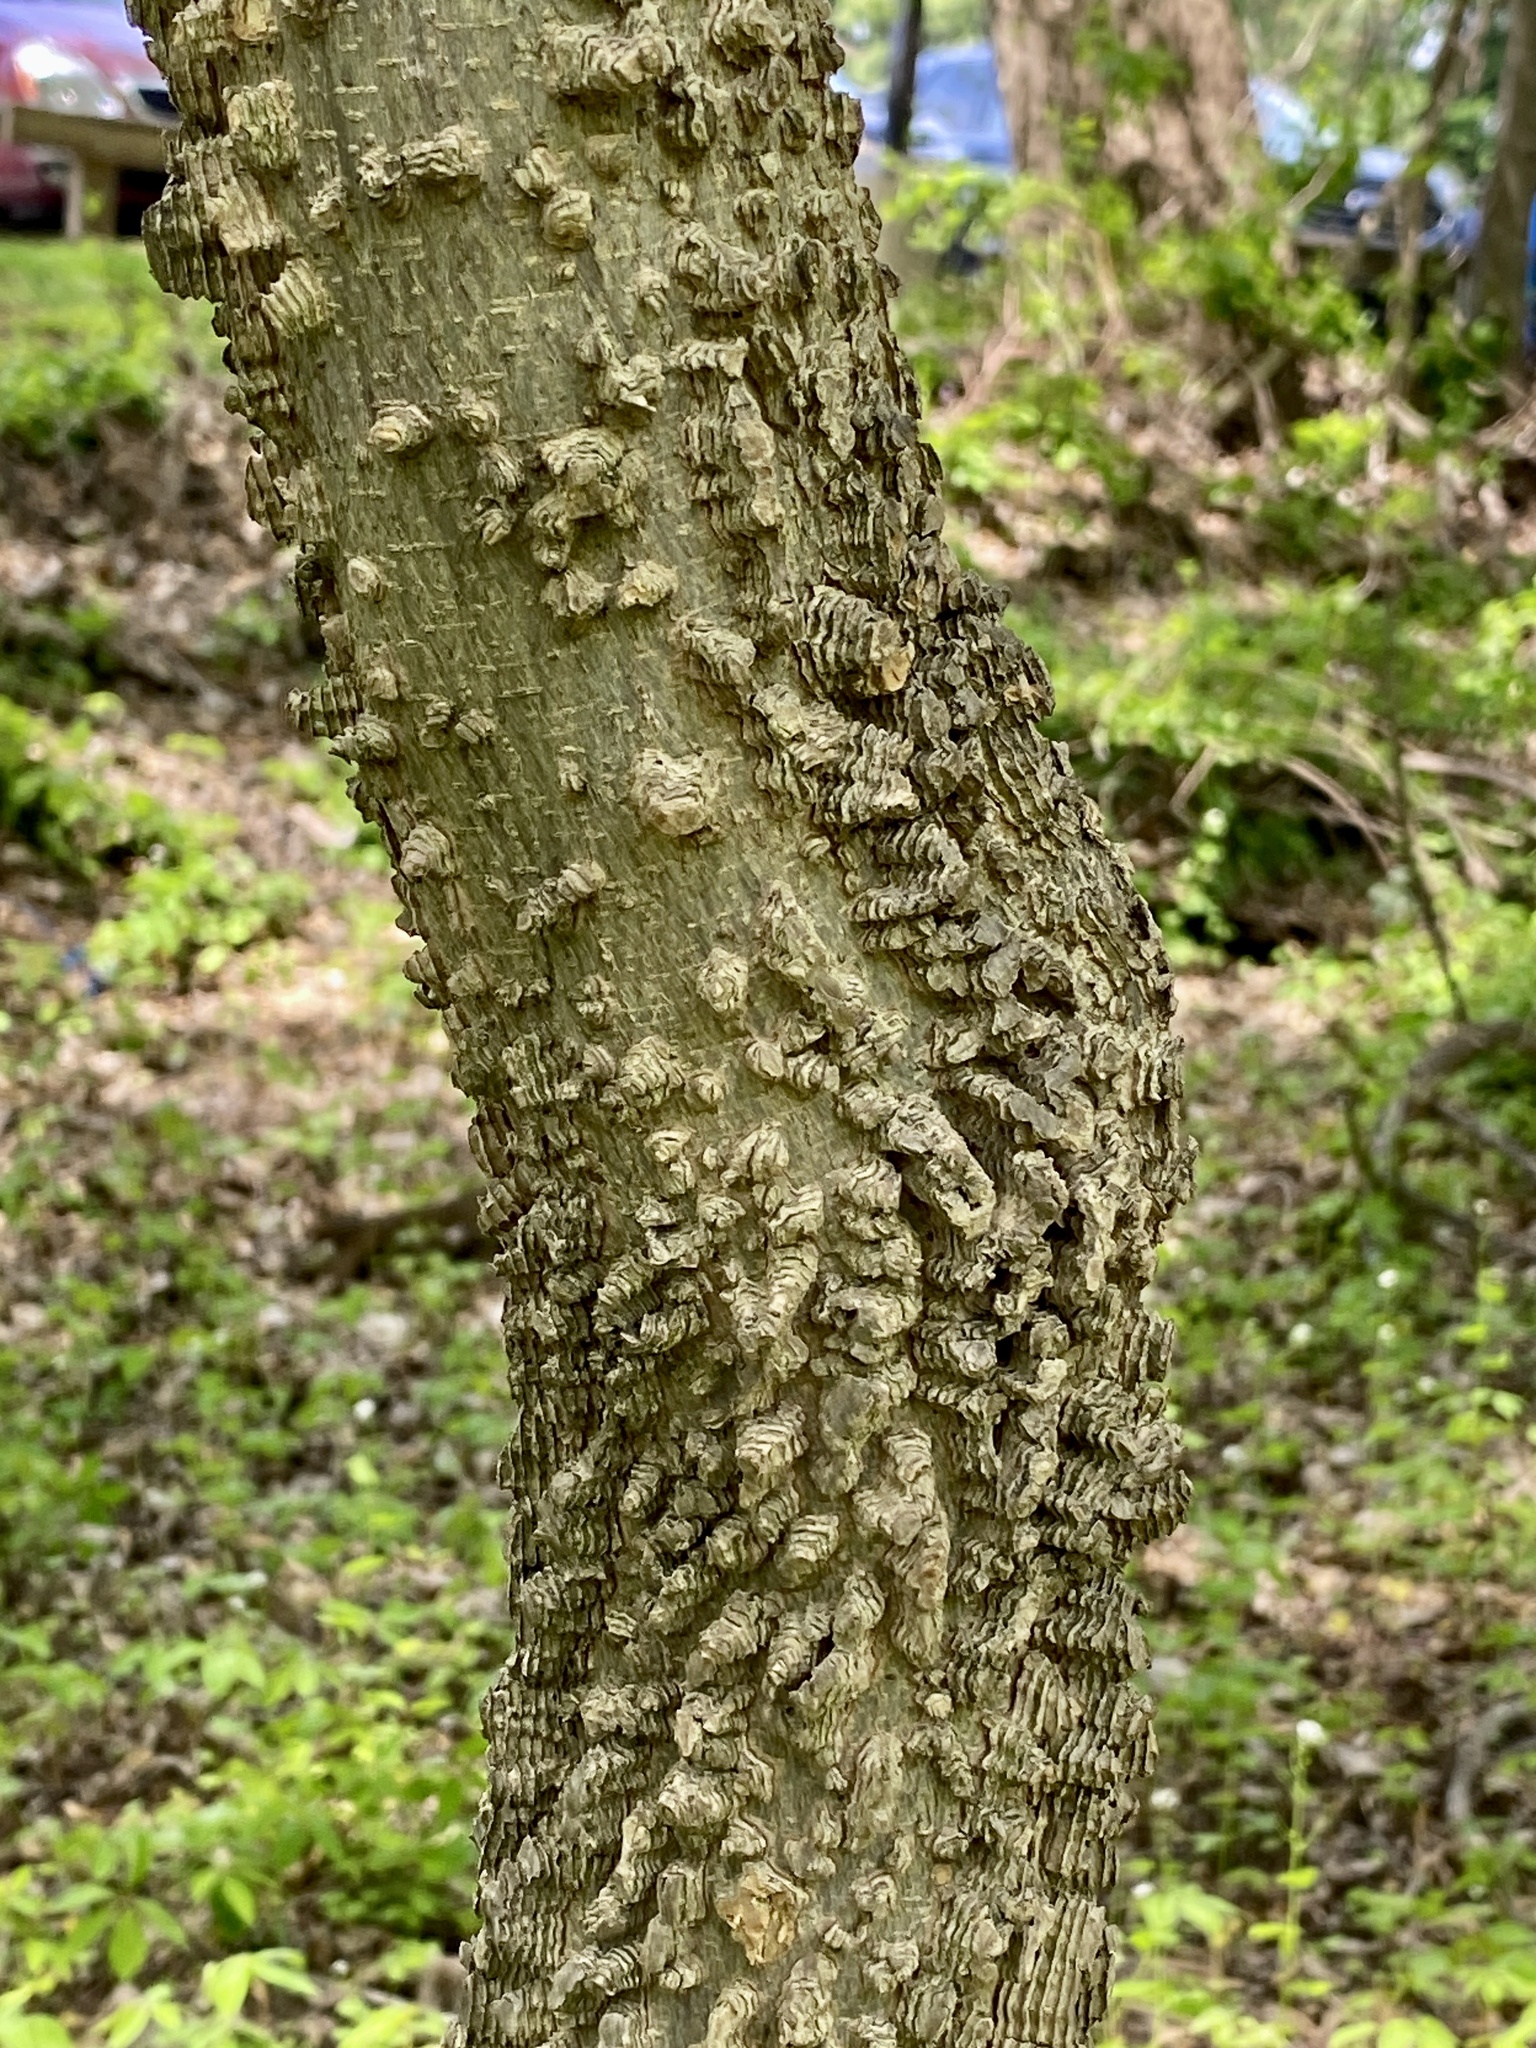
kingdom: Plantae
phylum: Tracheophyta
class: Magnoliopsida
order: Rosales
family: Cannabaceae
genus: Celtis
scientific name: Celtis occidentalis
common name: Common hackberry
